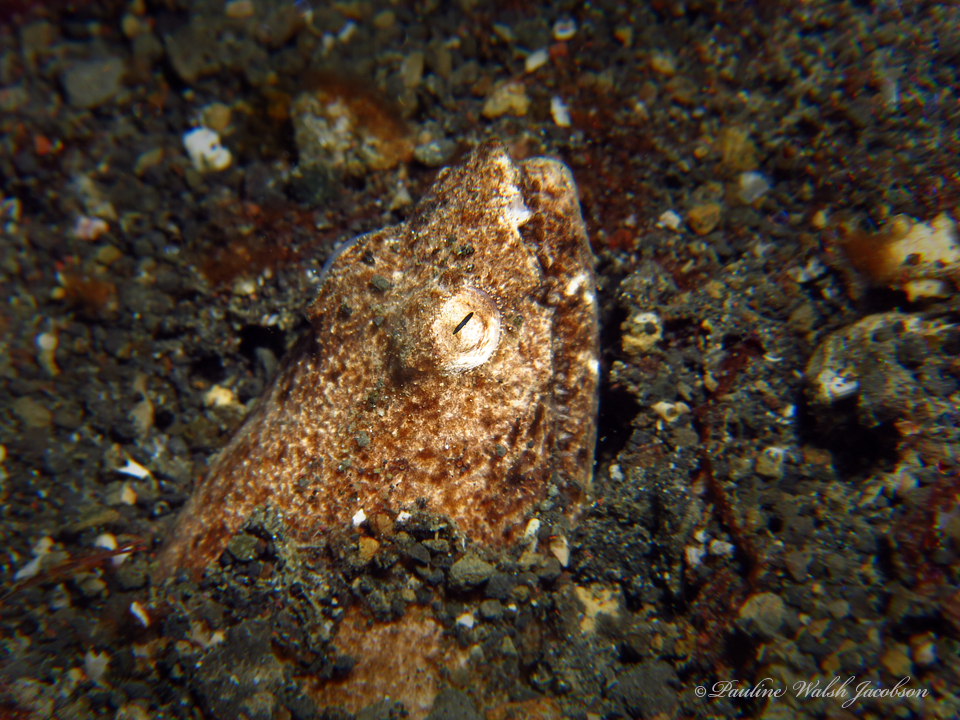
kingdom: Animalia
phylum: Chordata
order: Anguilliformes
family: Ophichthidae
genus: Brachysomophis
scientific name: Brachysomophis cirrocheilos
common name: Stargazer snake eel
